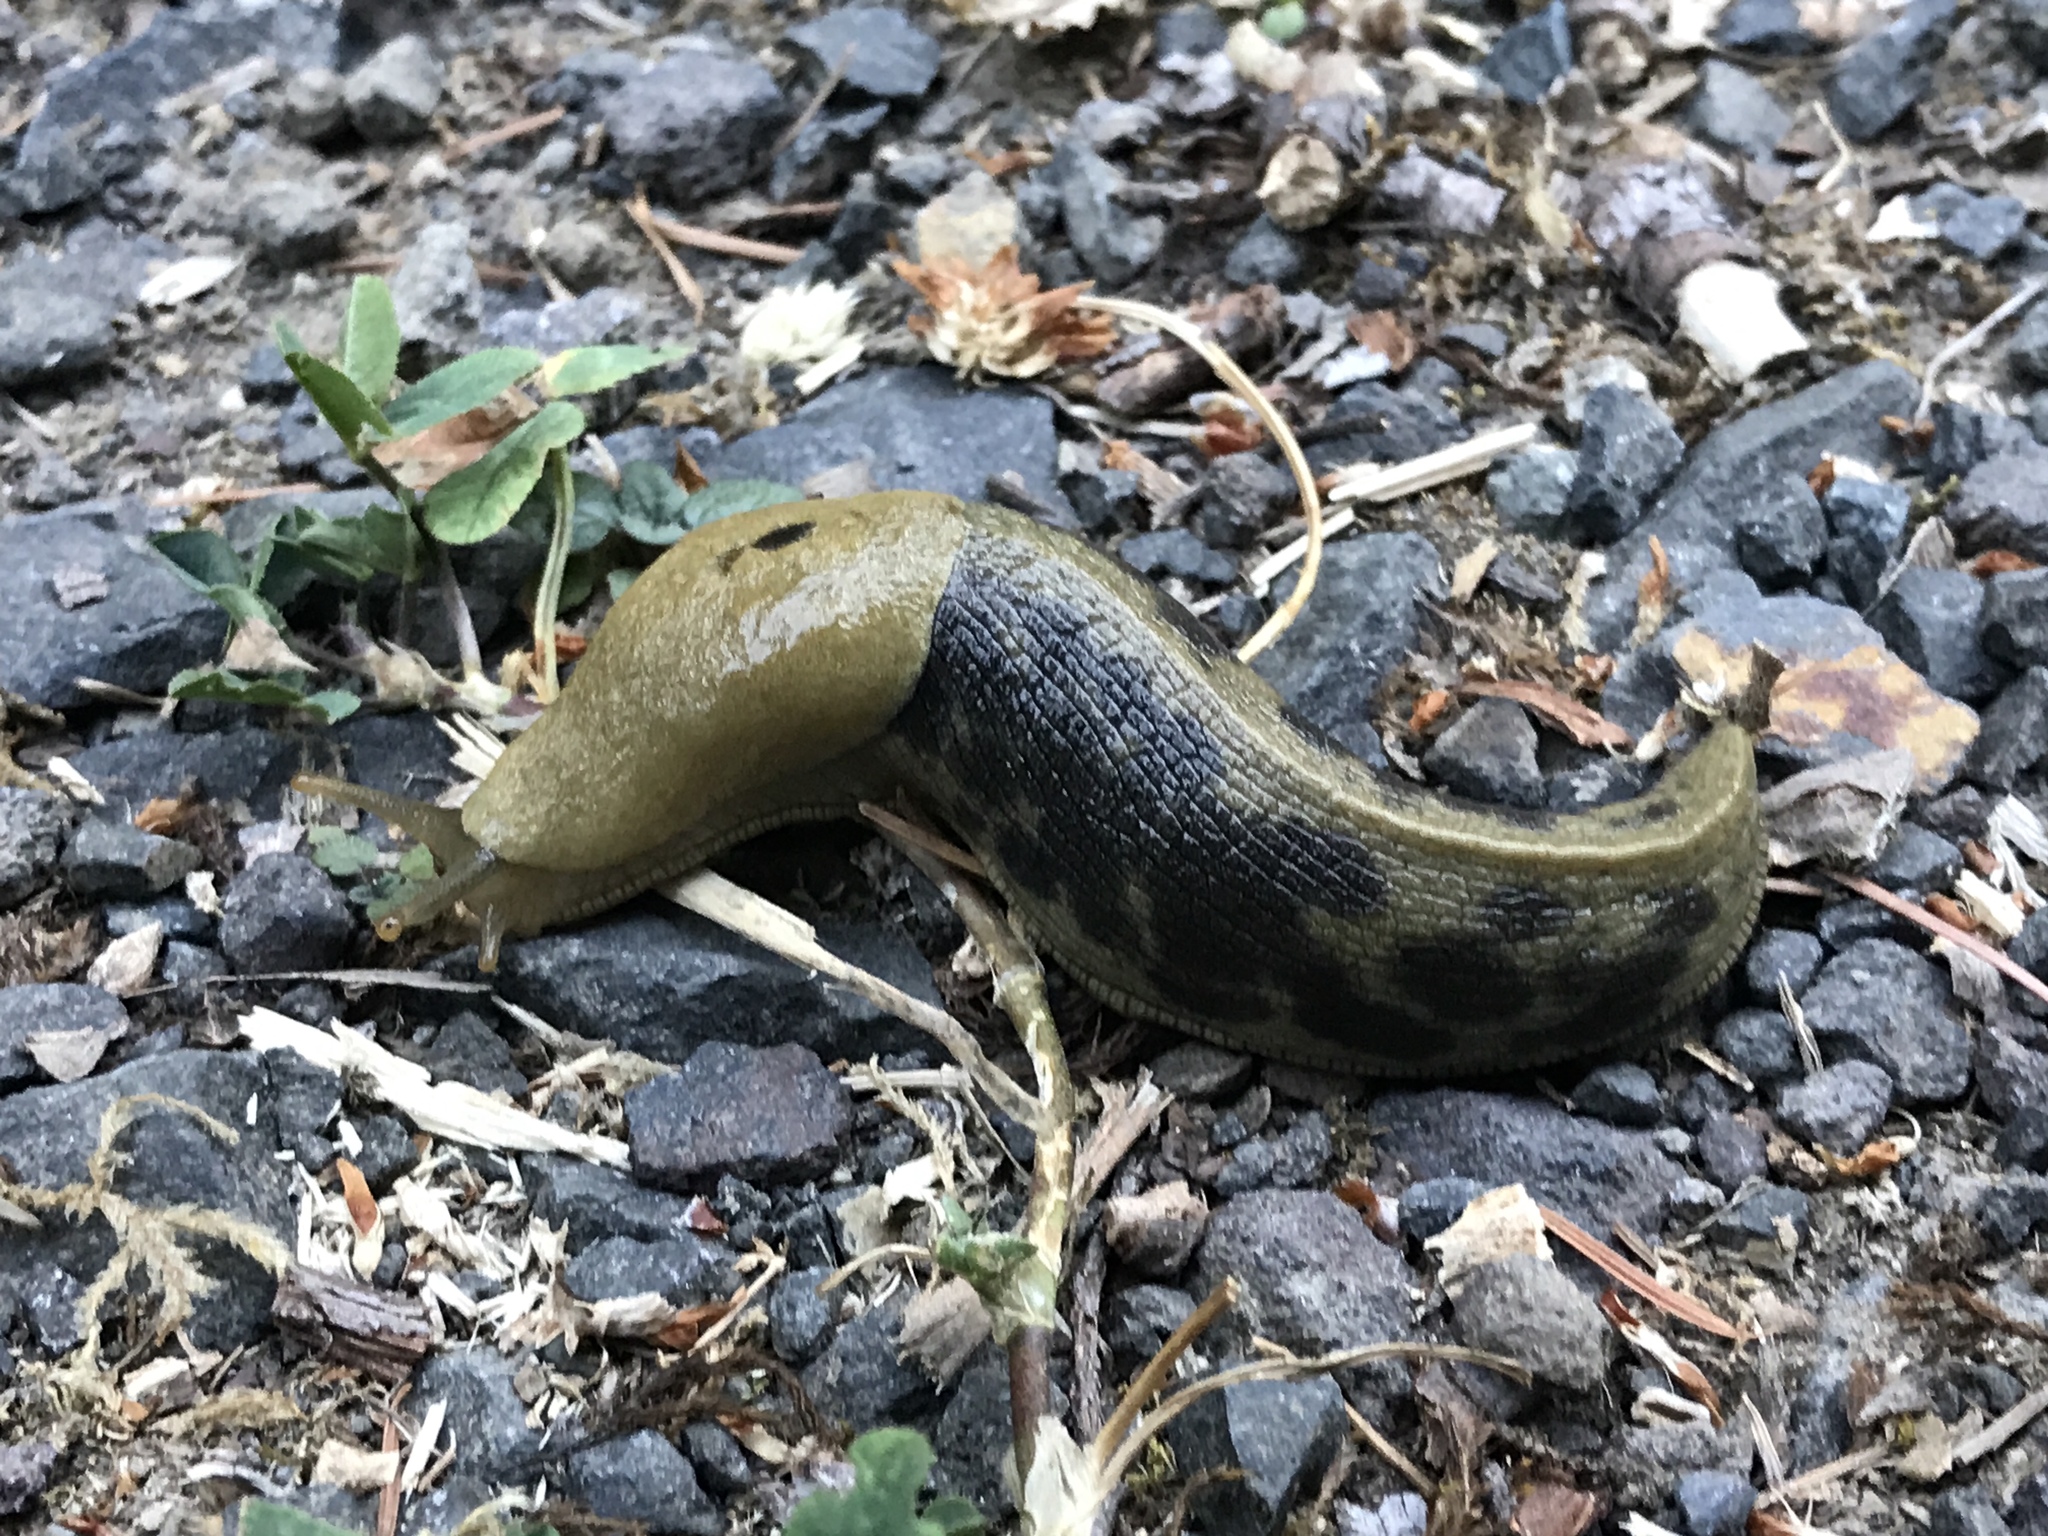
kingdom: Animalia
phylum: Mollusca
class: Gastropoda
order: Stylommatophora
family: Ariolimacidae
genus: Ariolimax
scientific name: Ariolimax columbianus
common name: Pacific banana slug
